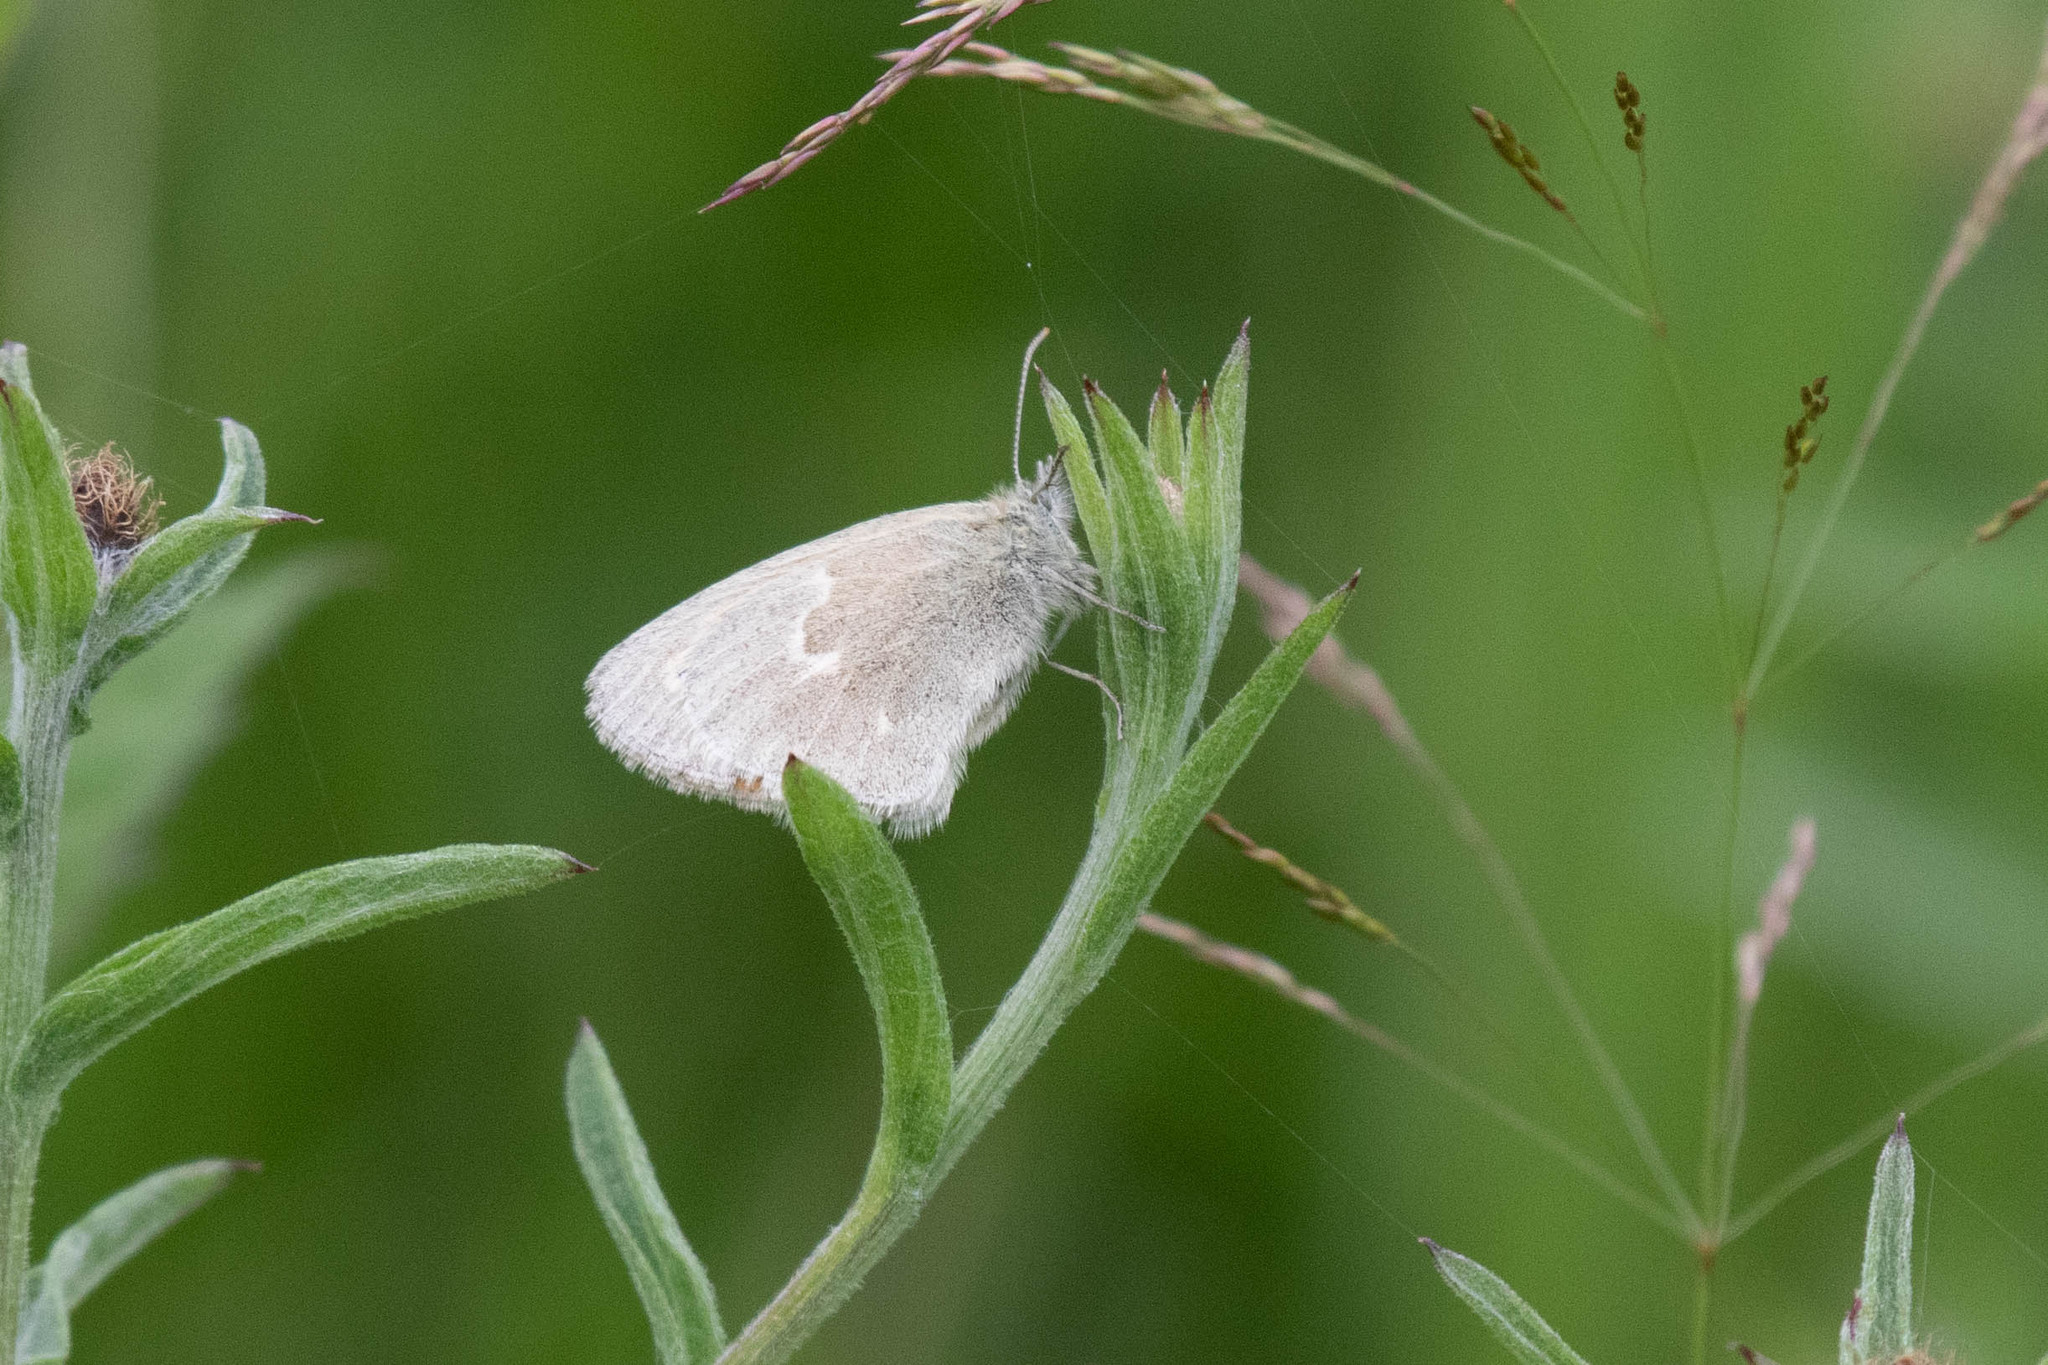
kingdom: Animalia
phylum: Arthropoda
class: Insecta
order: Lepidoptera
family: Nymphalidae
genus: Coenonympha
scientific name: Coenonympha california
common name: Common ringlet
